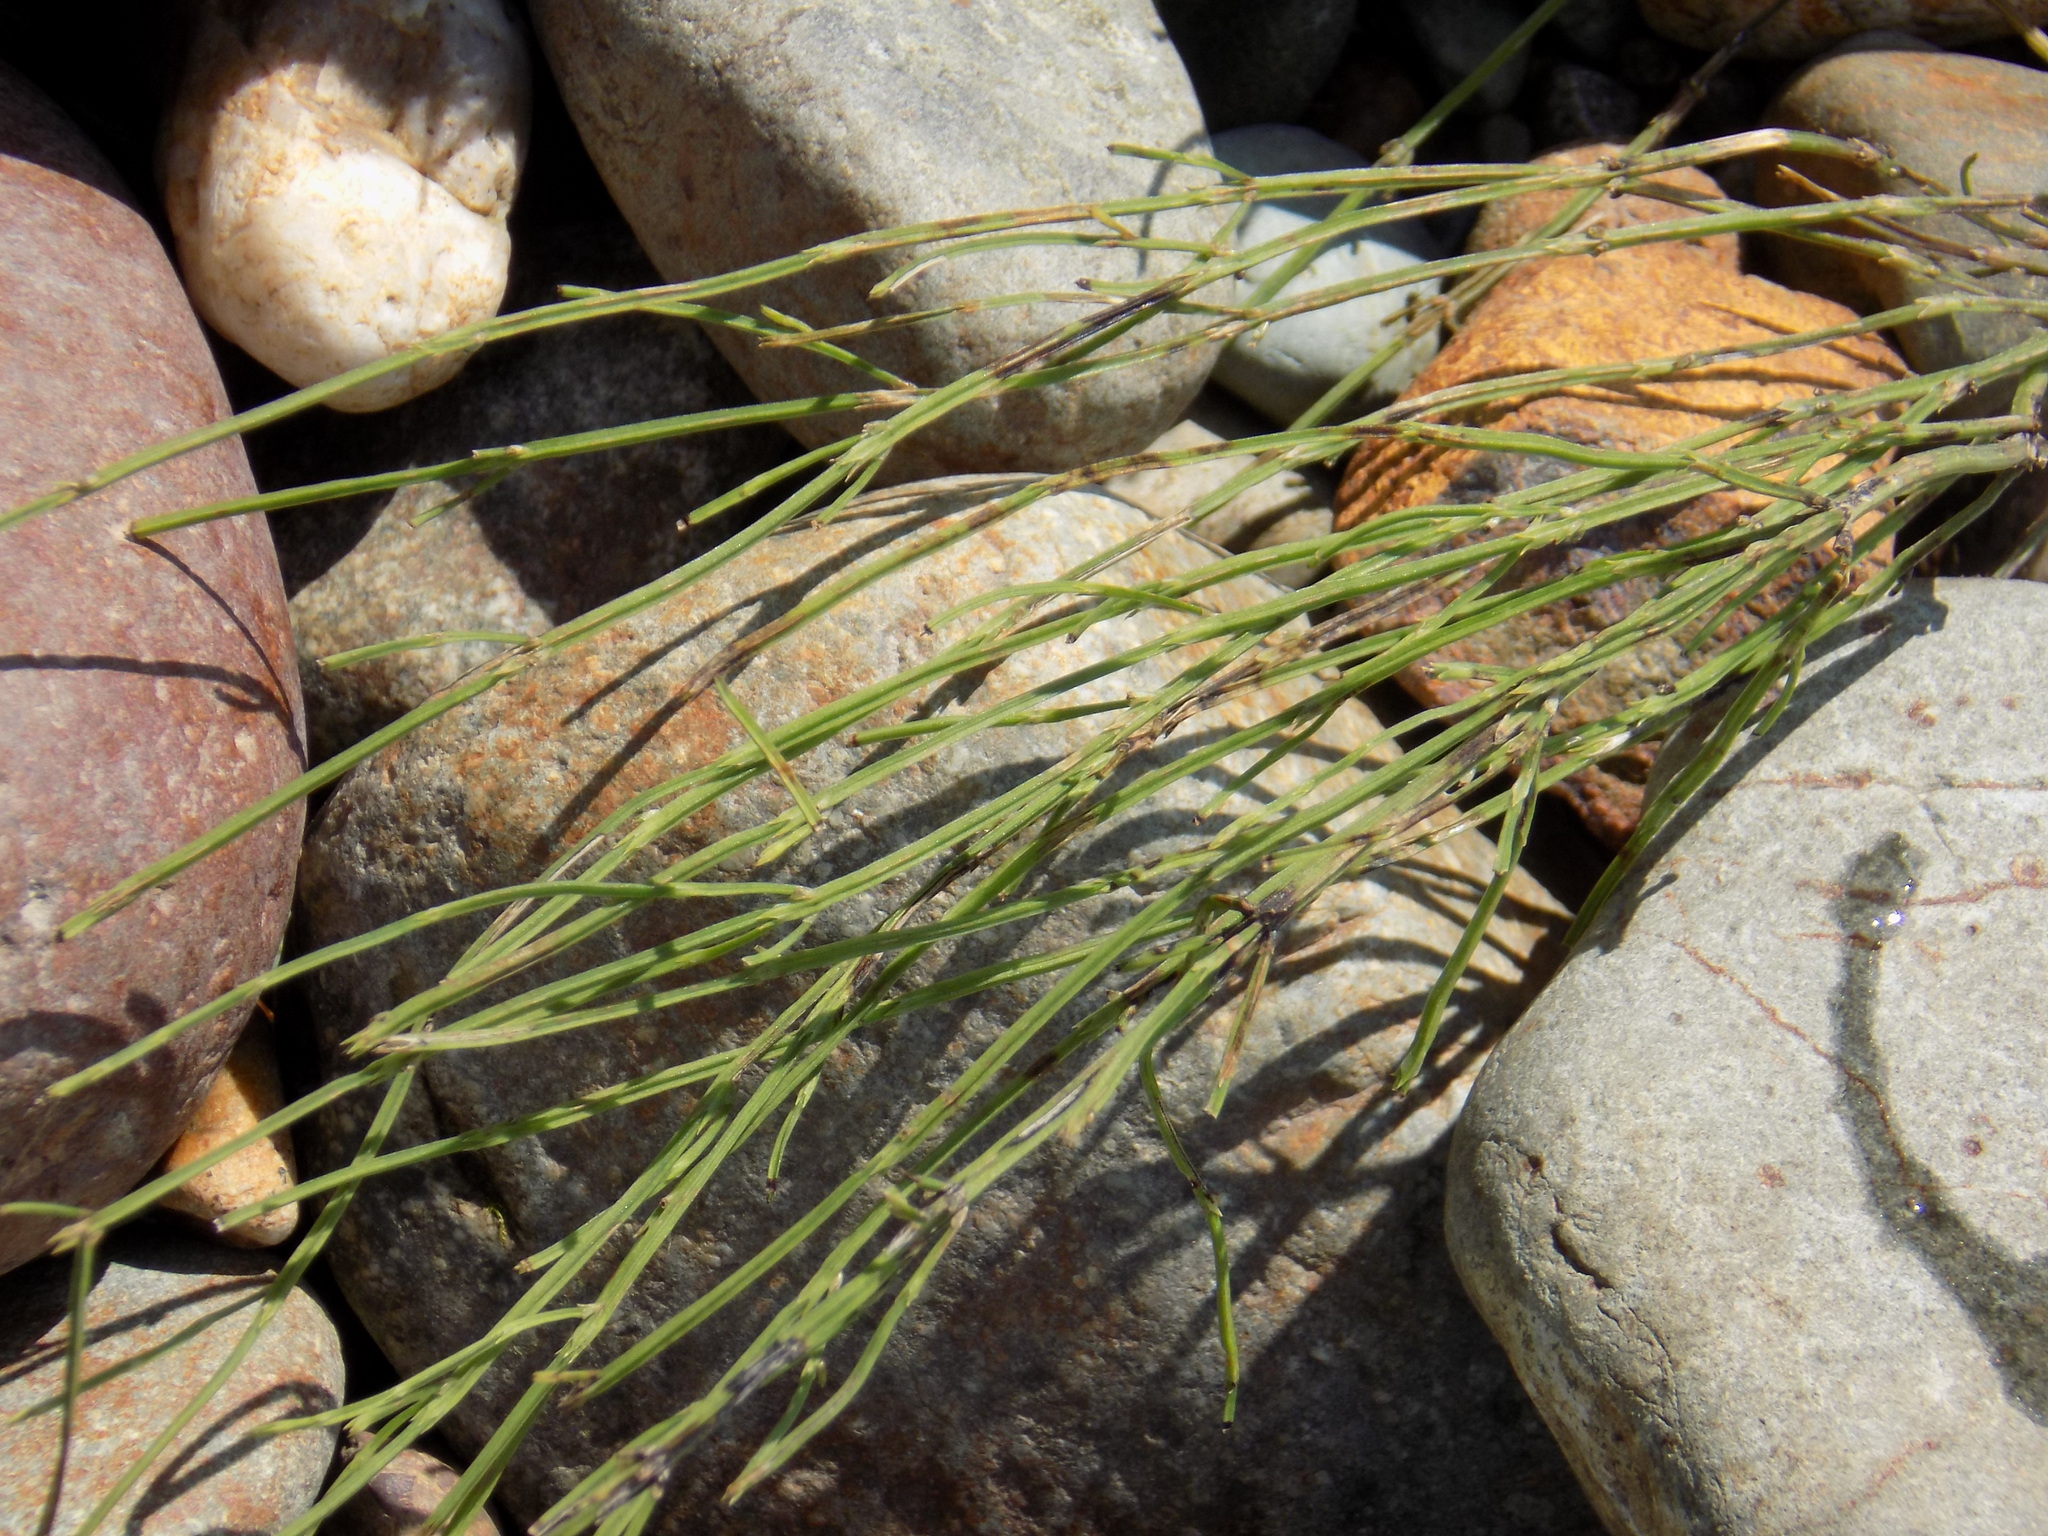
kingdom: Plantae
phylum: Tracheophyta
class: Polypodiopsida
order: Equisetales
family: Equisetaceae
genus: Equisetum
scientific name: Equisetum arvense
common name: Field horsetail
